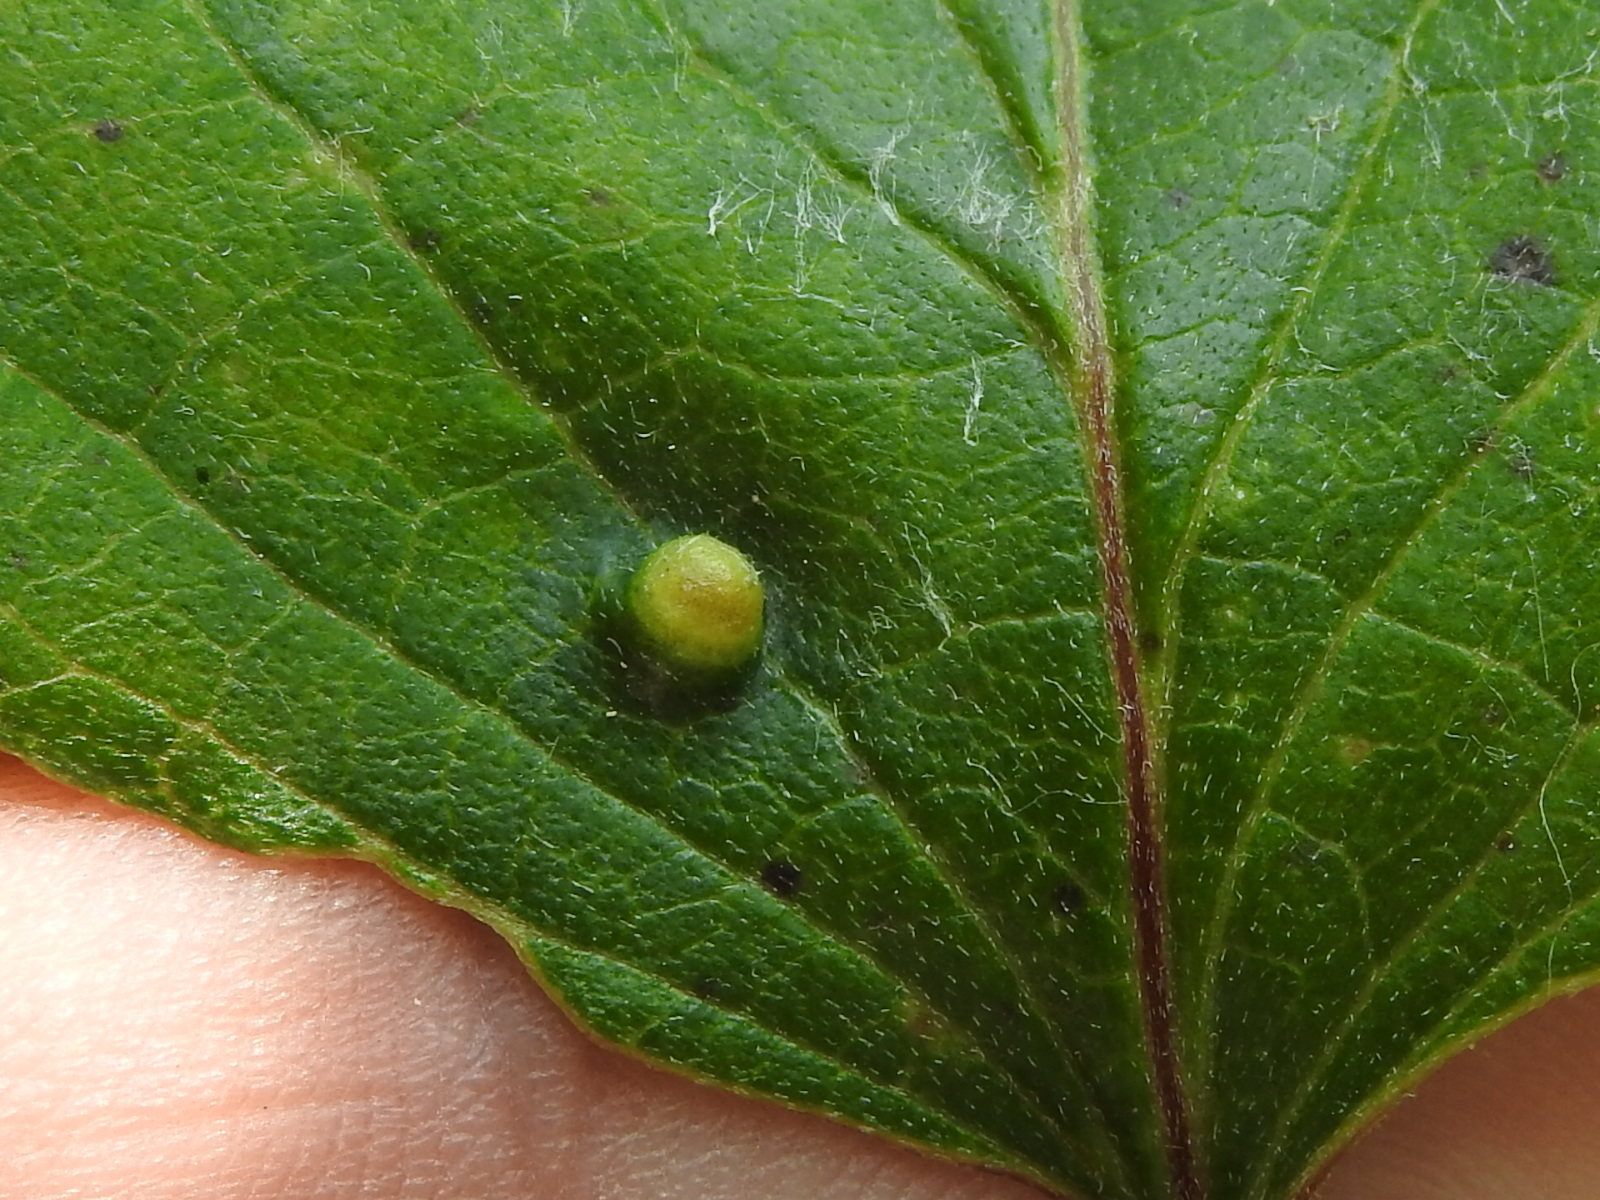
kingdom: Animalia
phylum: Arthropoda
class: Insecta
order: Diptera
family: Cecidomyiidae
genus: Dasineura
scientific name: Dasineura tuba
